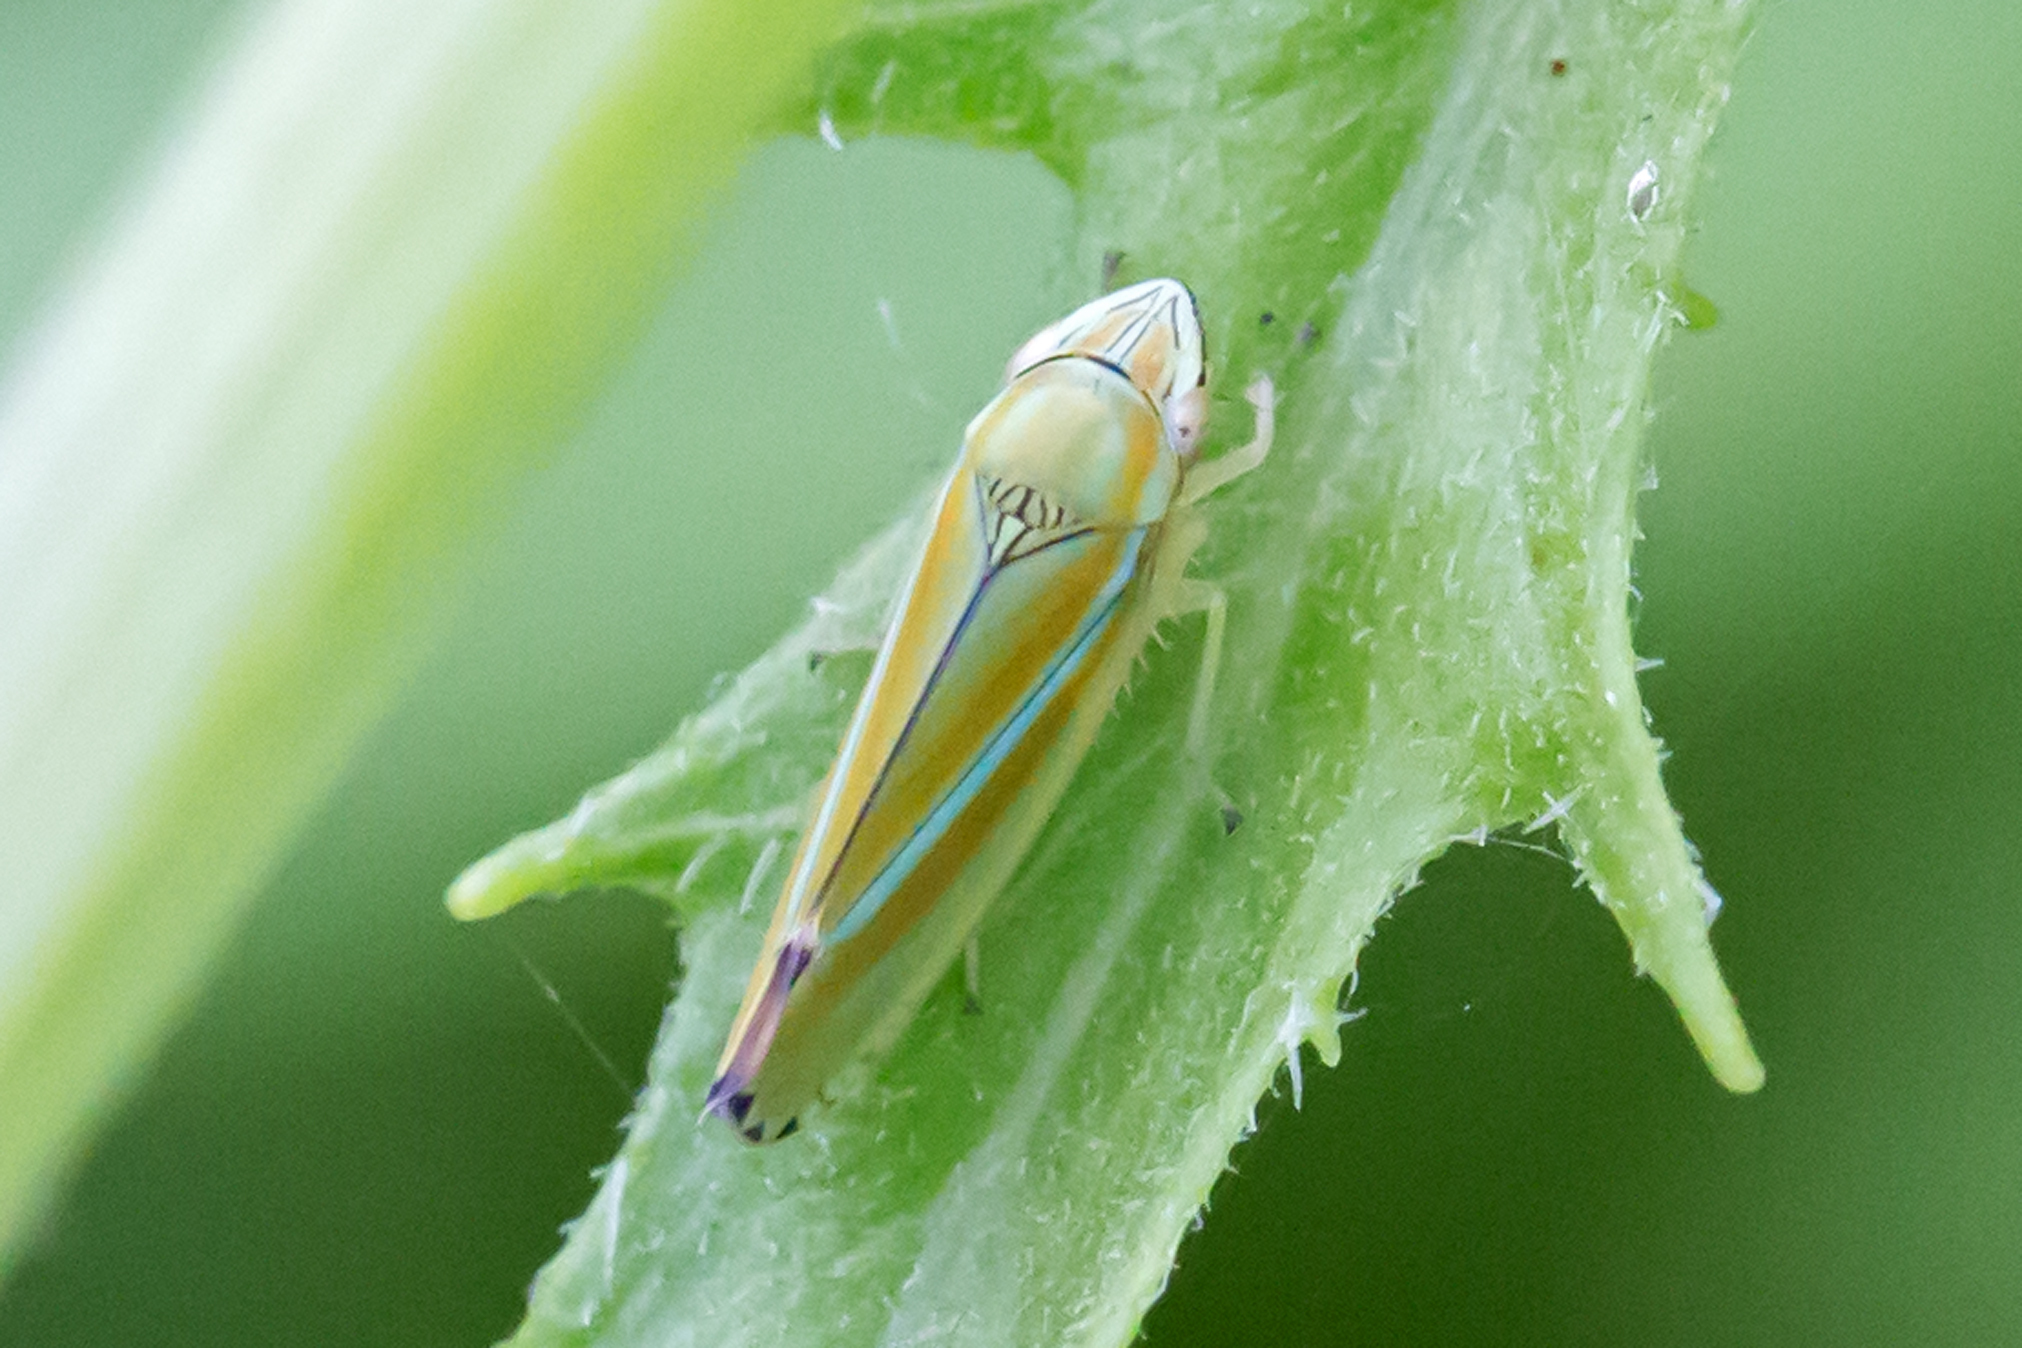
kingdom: Animalia
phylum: Arthropoda
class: Insecta
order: Hemiptera
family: Cicadellidae
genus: Graphocephala
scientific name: Graphocephala versuta
